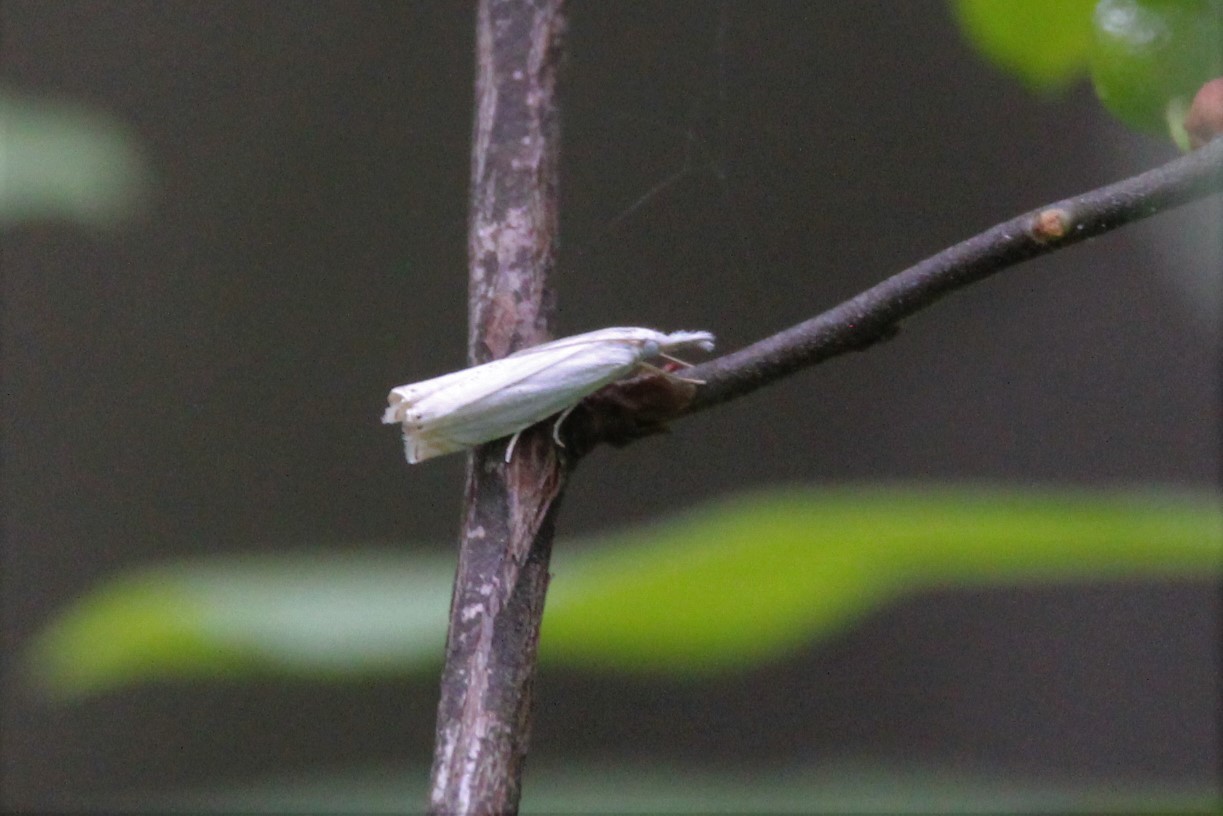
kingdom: Animalia
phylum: Arthropoda
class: Insecta
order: Lepidoptera
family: Crambidae
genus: Crambus
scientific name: Crambus albellus
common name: Small white grass-veneer
